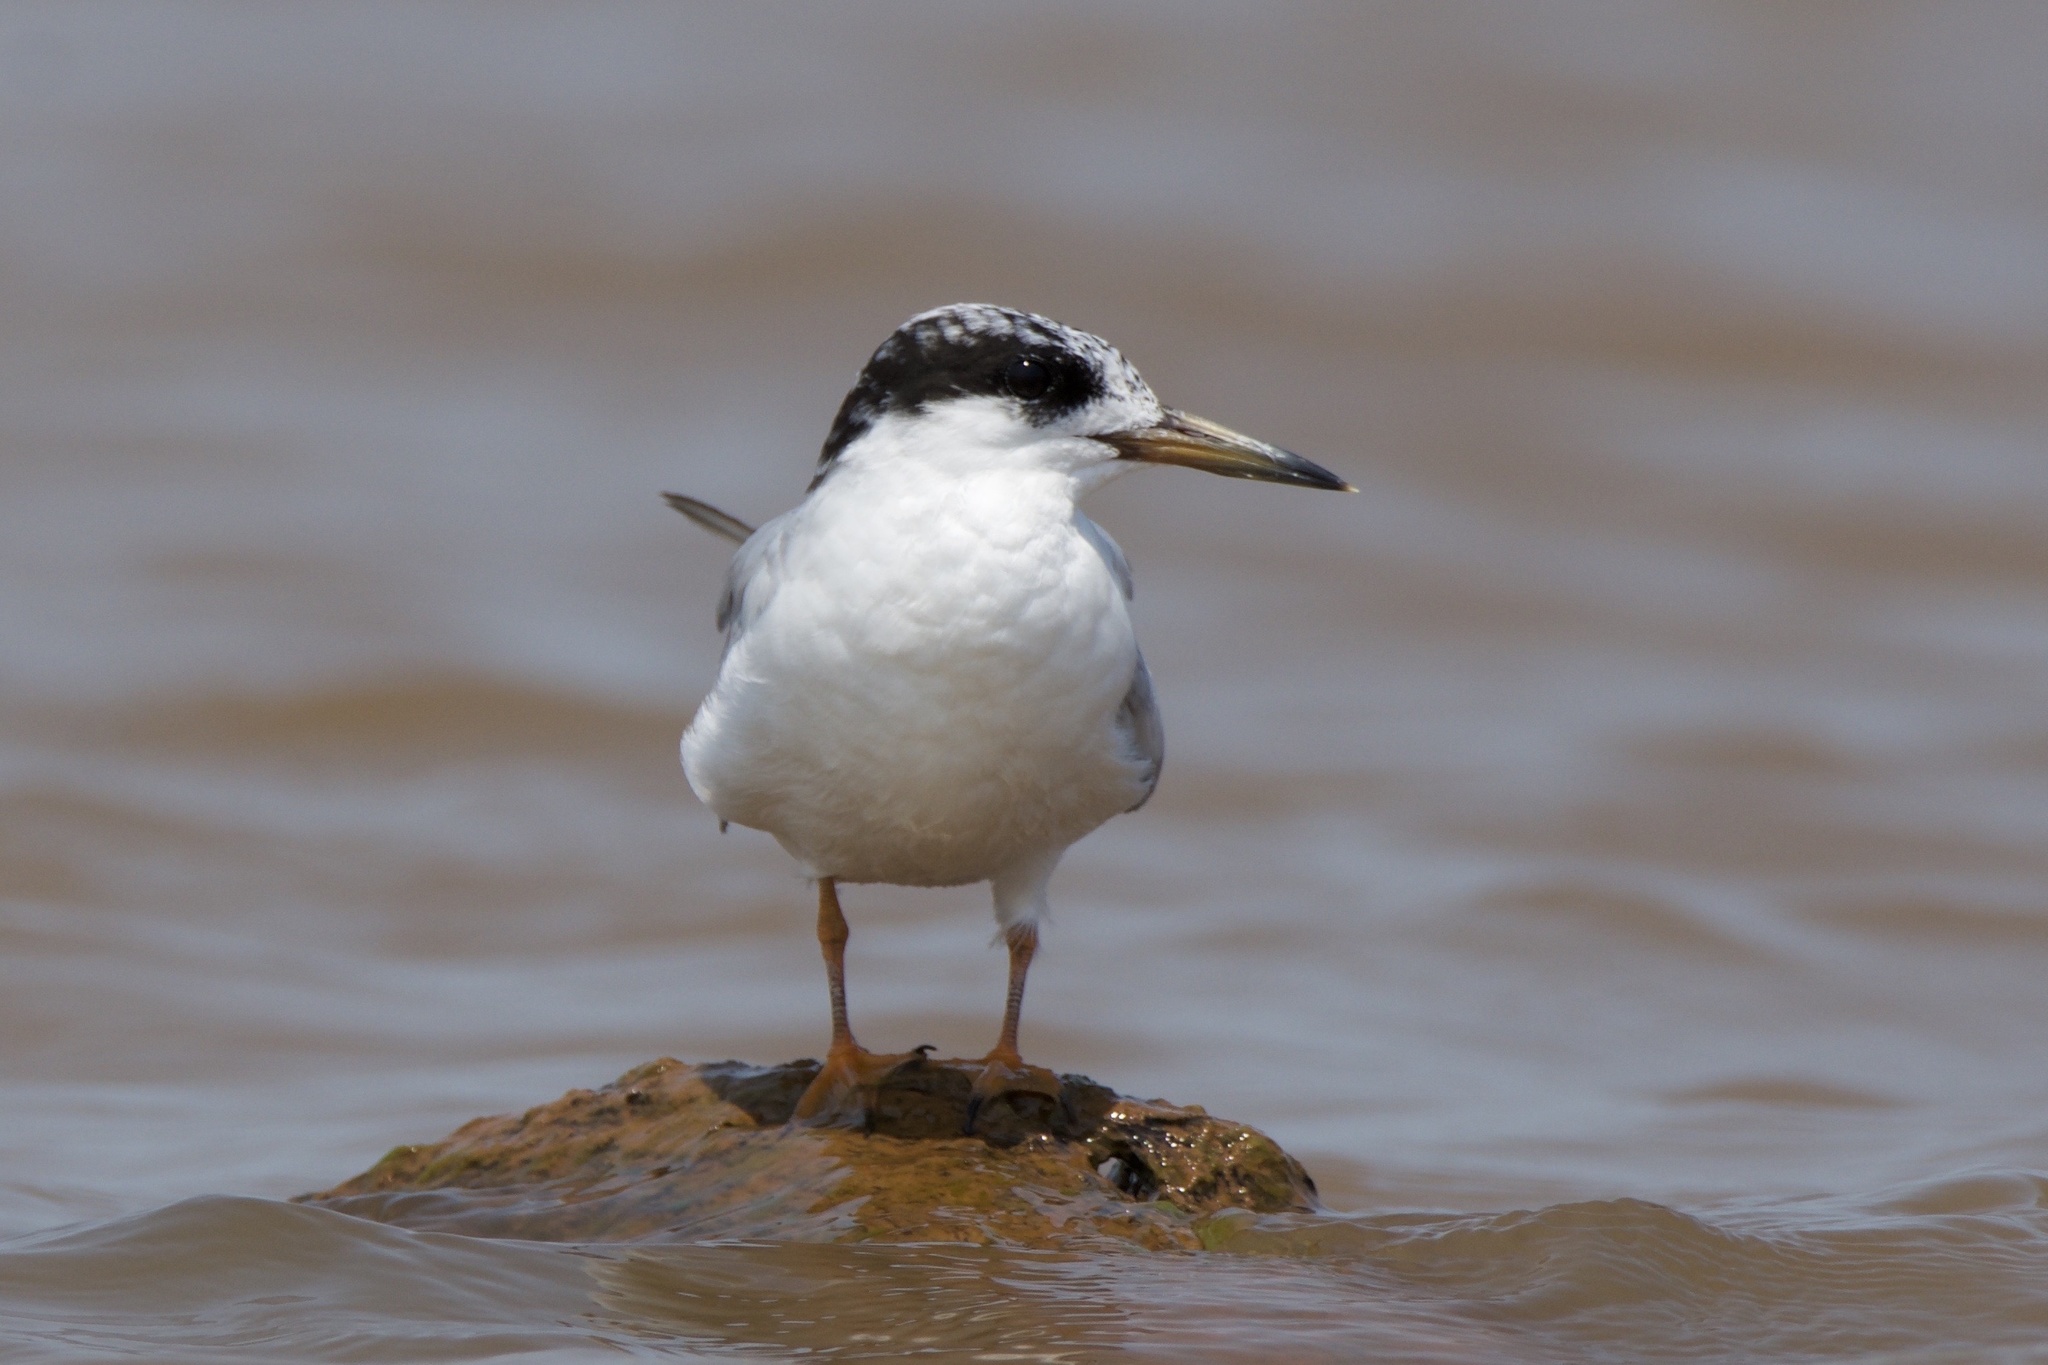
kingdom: Animalia
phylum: Chordata
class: Aves
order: Charadriiformes
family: Laridae
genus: Sterna
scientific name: Sterna forsteri
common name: Forster's tern
